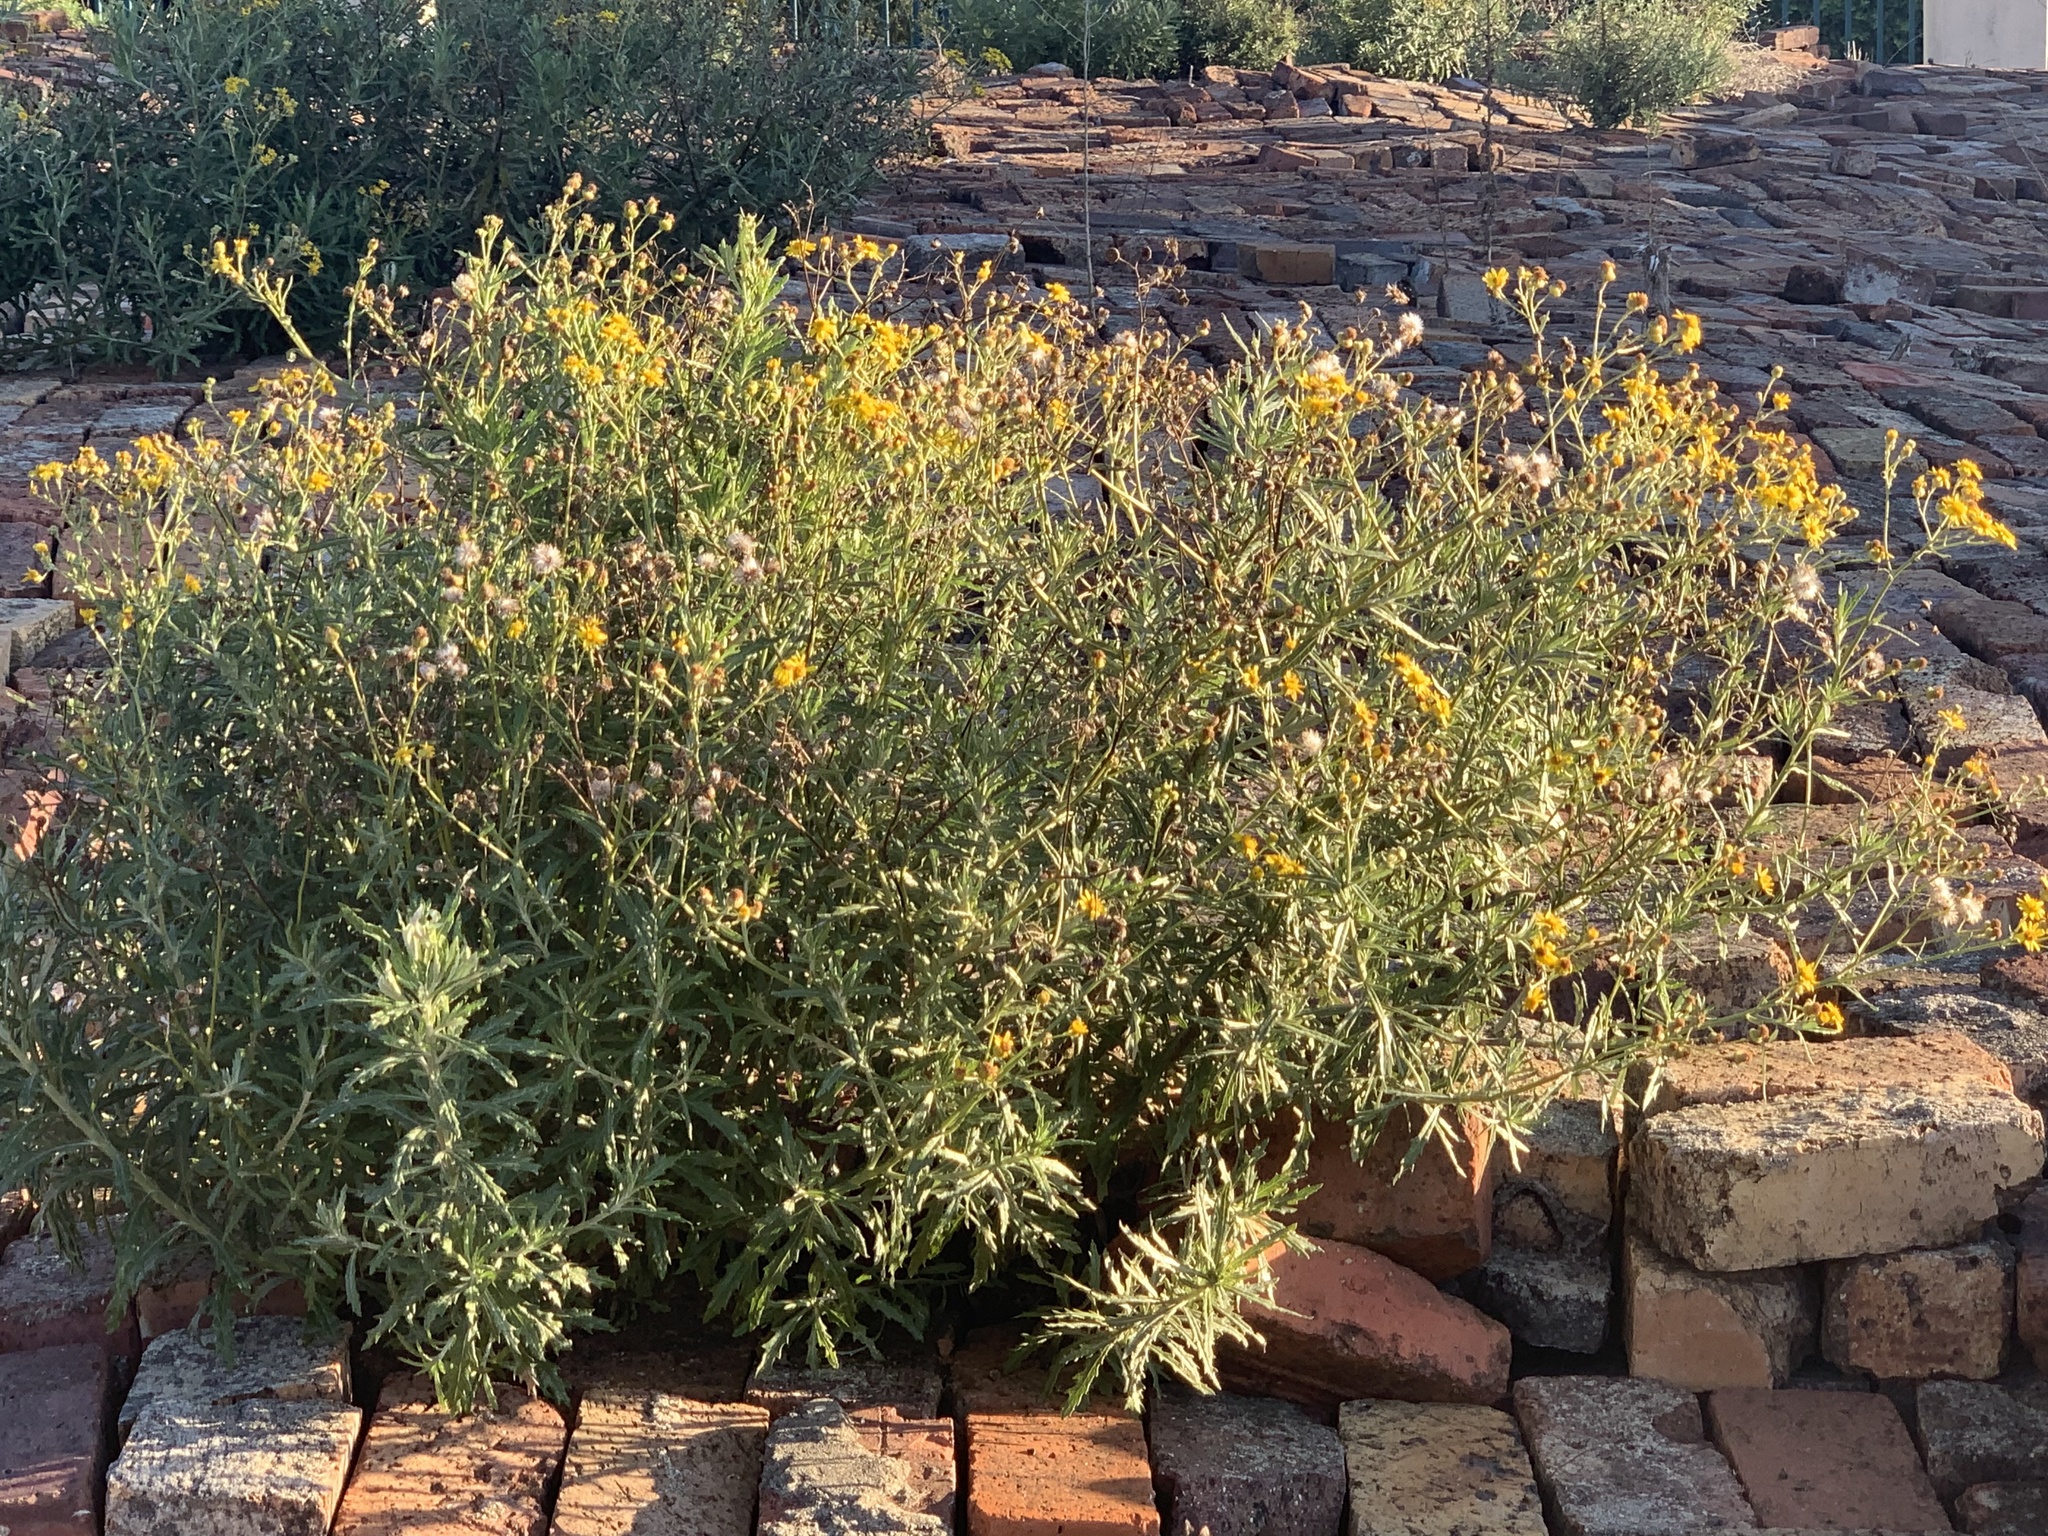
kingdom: Plantae
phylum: Tracheophyta
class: Magnoliopsida
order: Asterales
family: Asteraceae
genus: Senecio
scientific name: Senecio pterophorus
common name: Shoddy ragwort
